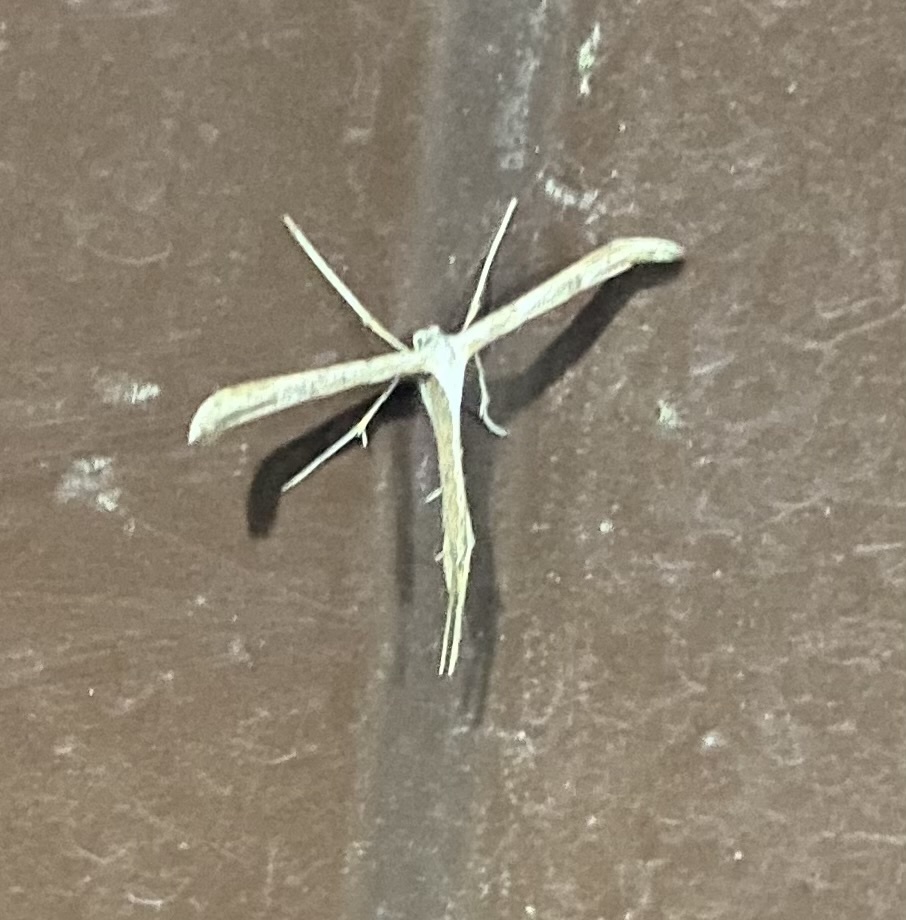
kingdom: Animalia
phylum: Arthropoda
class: Insecta
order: Lepidoptera
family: Pterophoridae
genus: Emmelina
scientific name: Emmelina monodactyla
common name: Common plume
